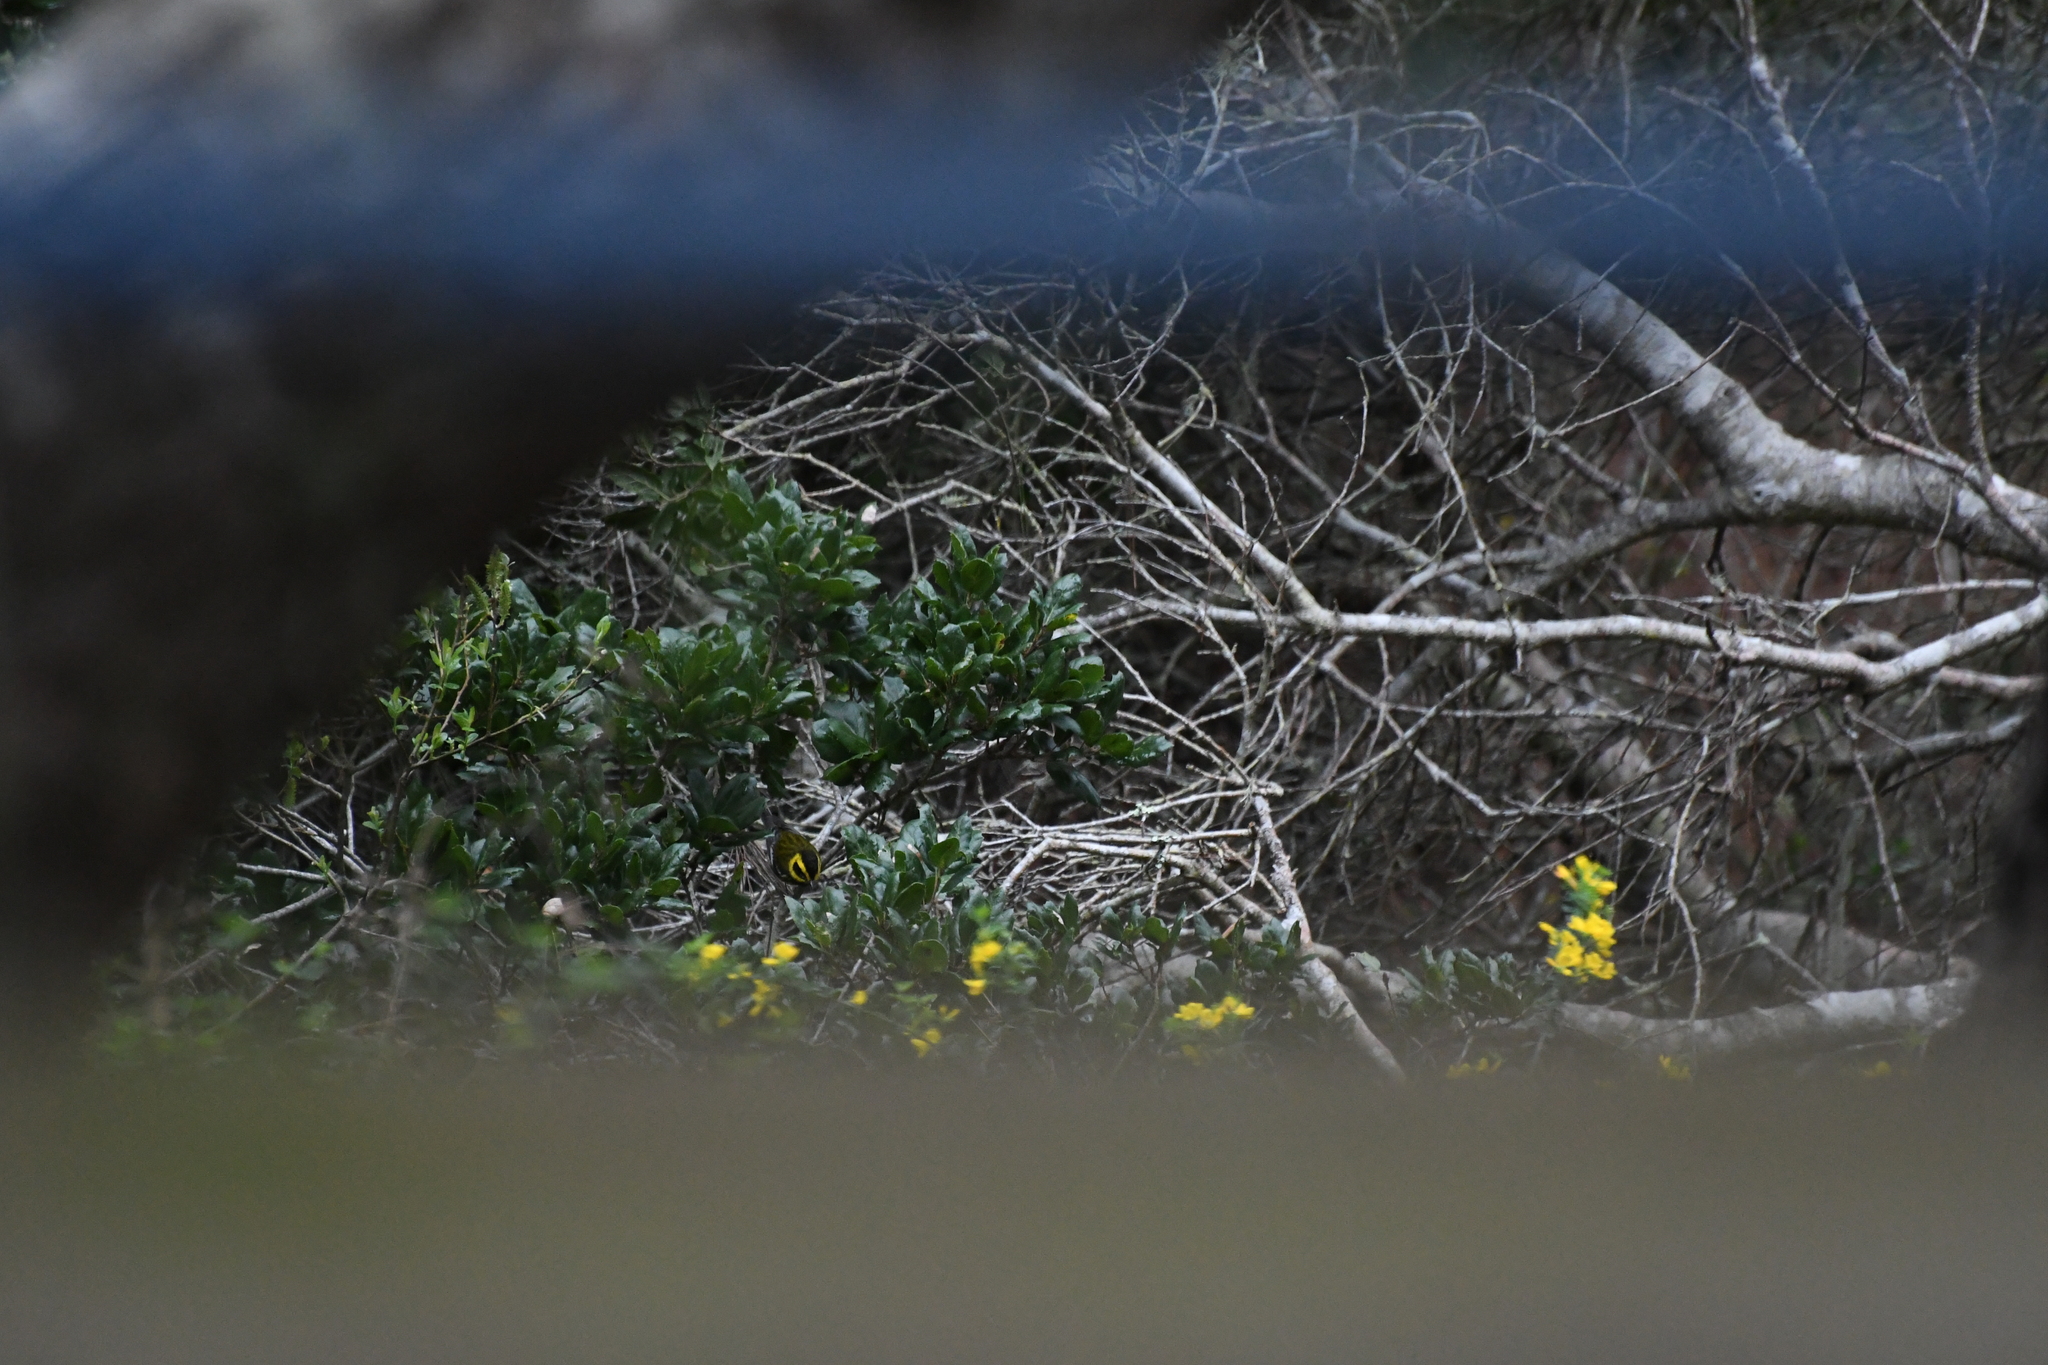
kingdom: Animalia
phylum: Chordata
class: Aves
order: Passeriformes
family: Parulidae
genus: Setophaga
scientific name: Setophaga townsendi
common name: Townsend's warbler
